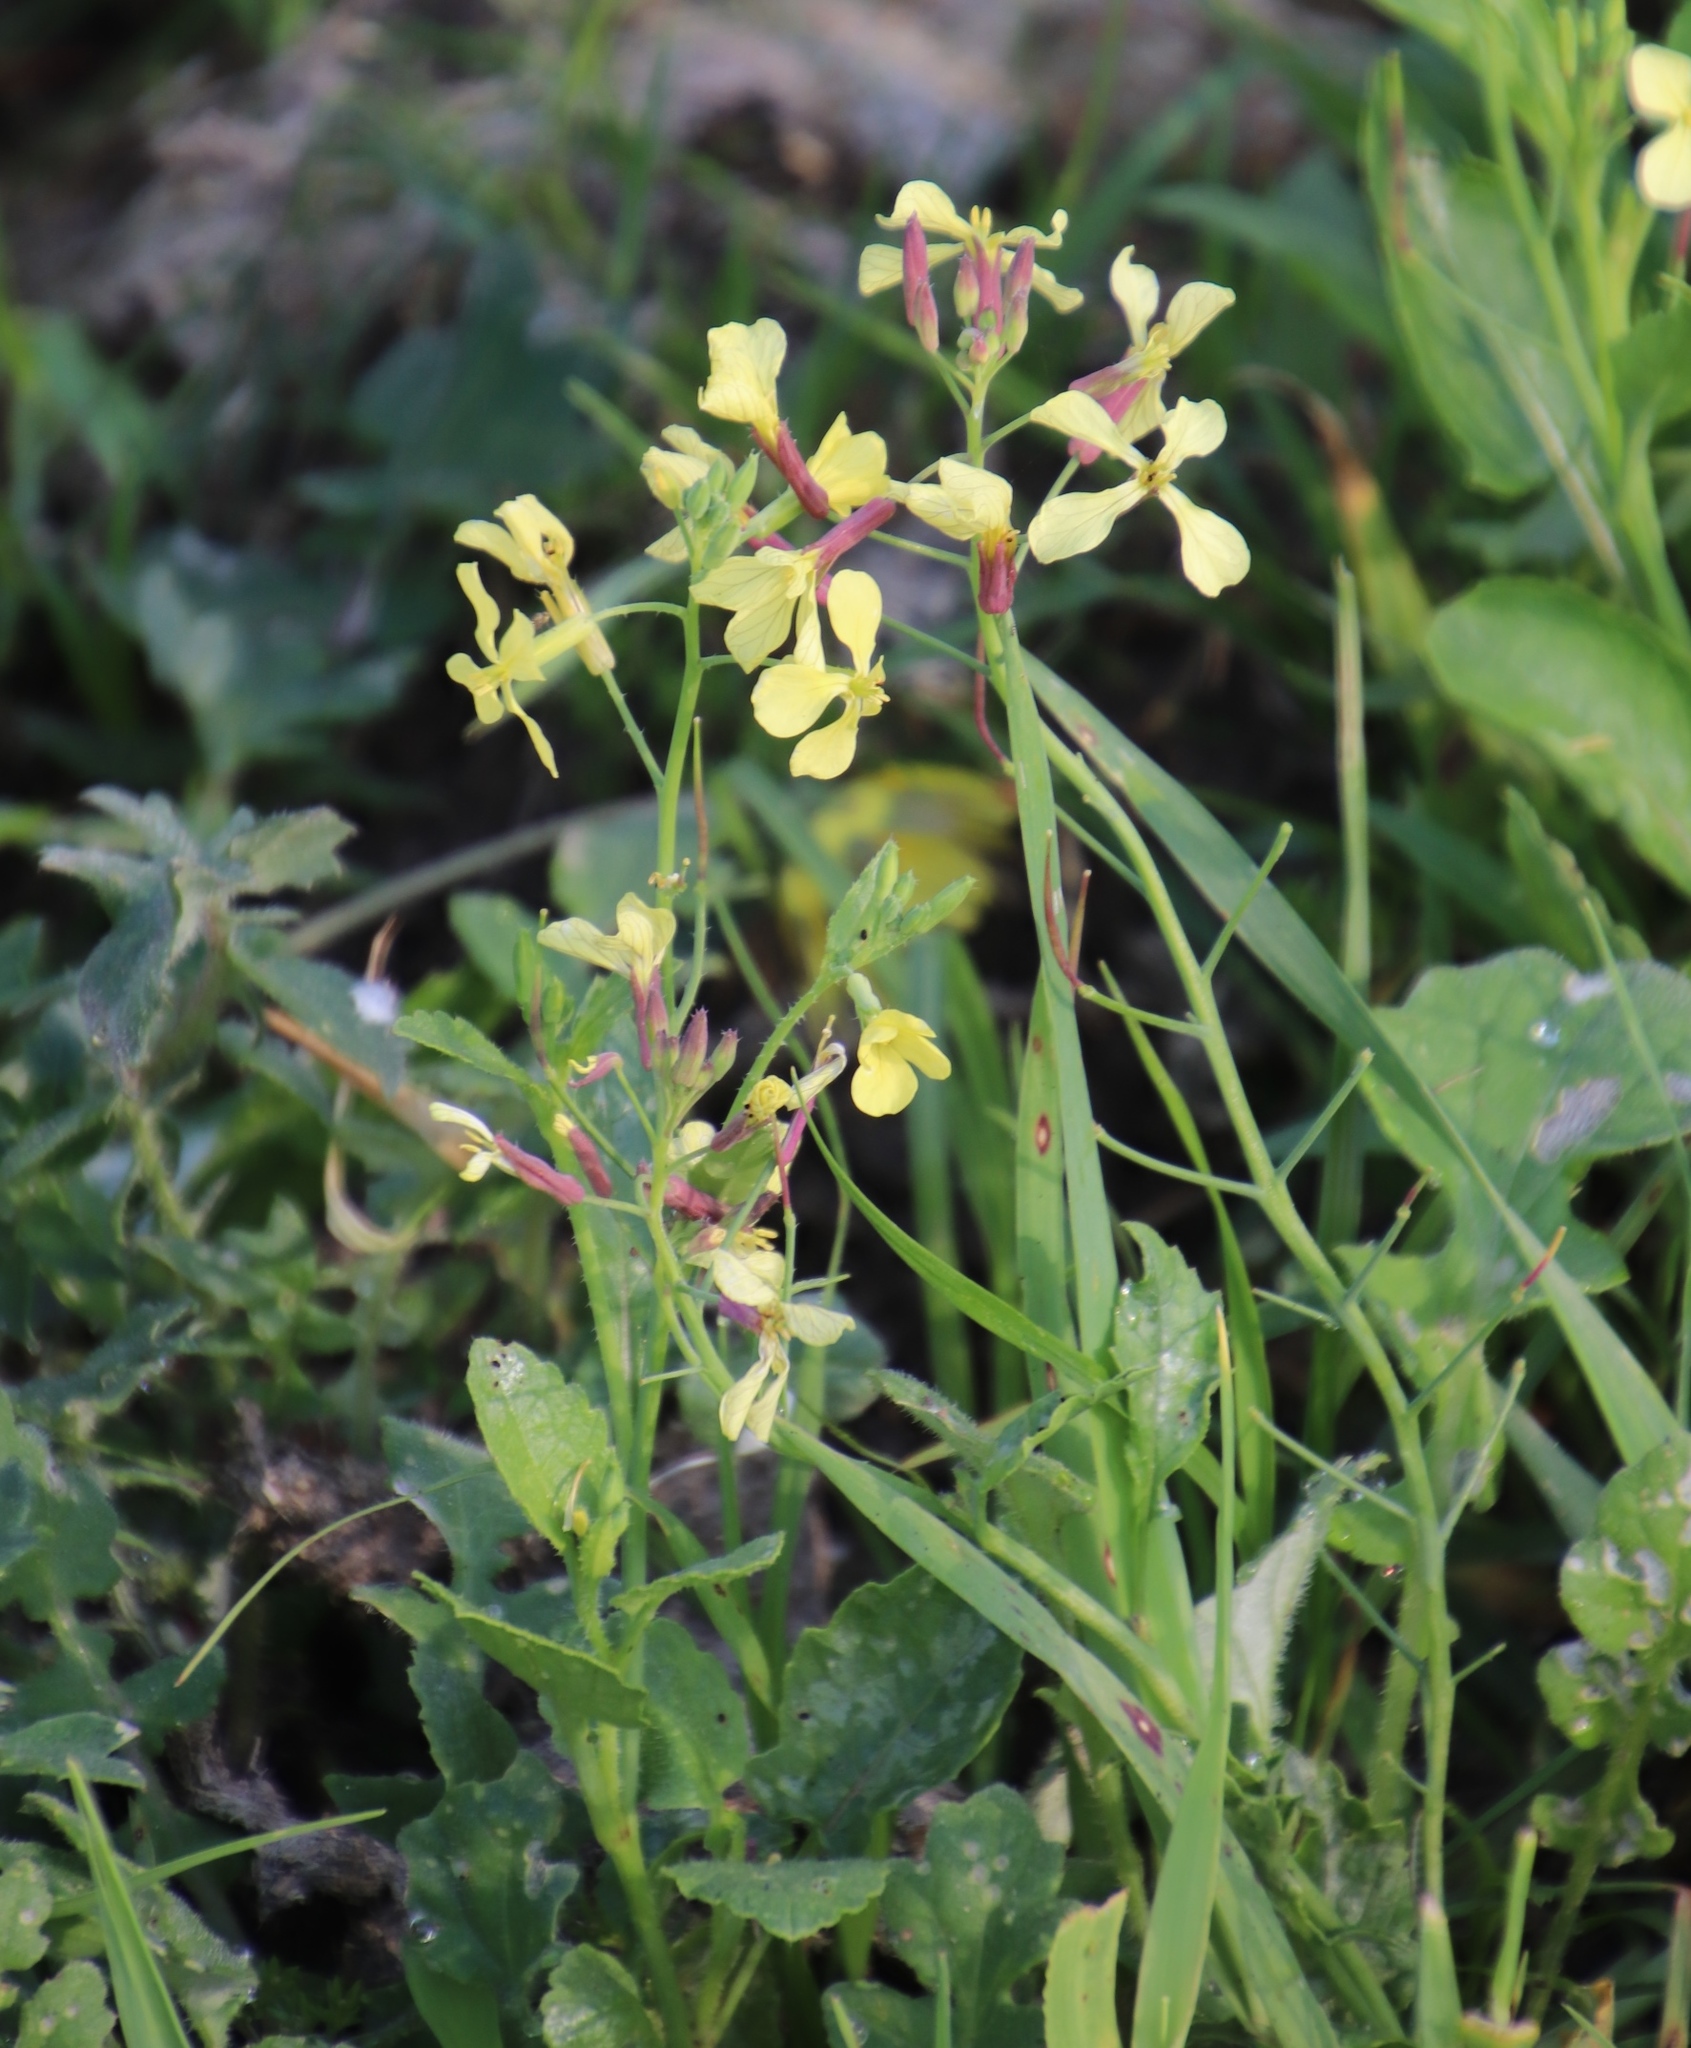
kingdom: Plantae
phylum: Tracheophyta
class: Magnoliopsida
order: Brassicales
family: Brassicaceae
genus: Raphanus
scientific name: Raphanus raphanistrum
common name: Wild radish
